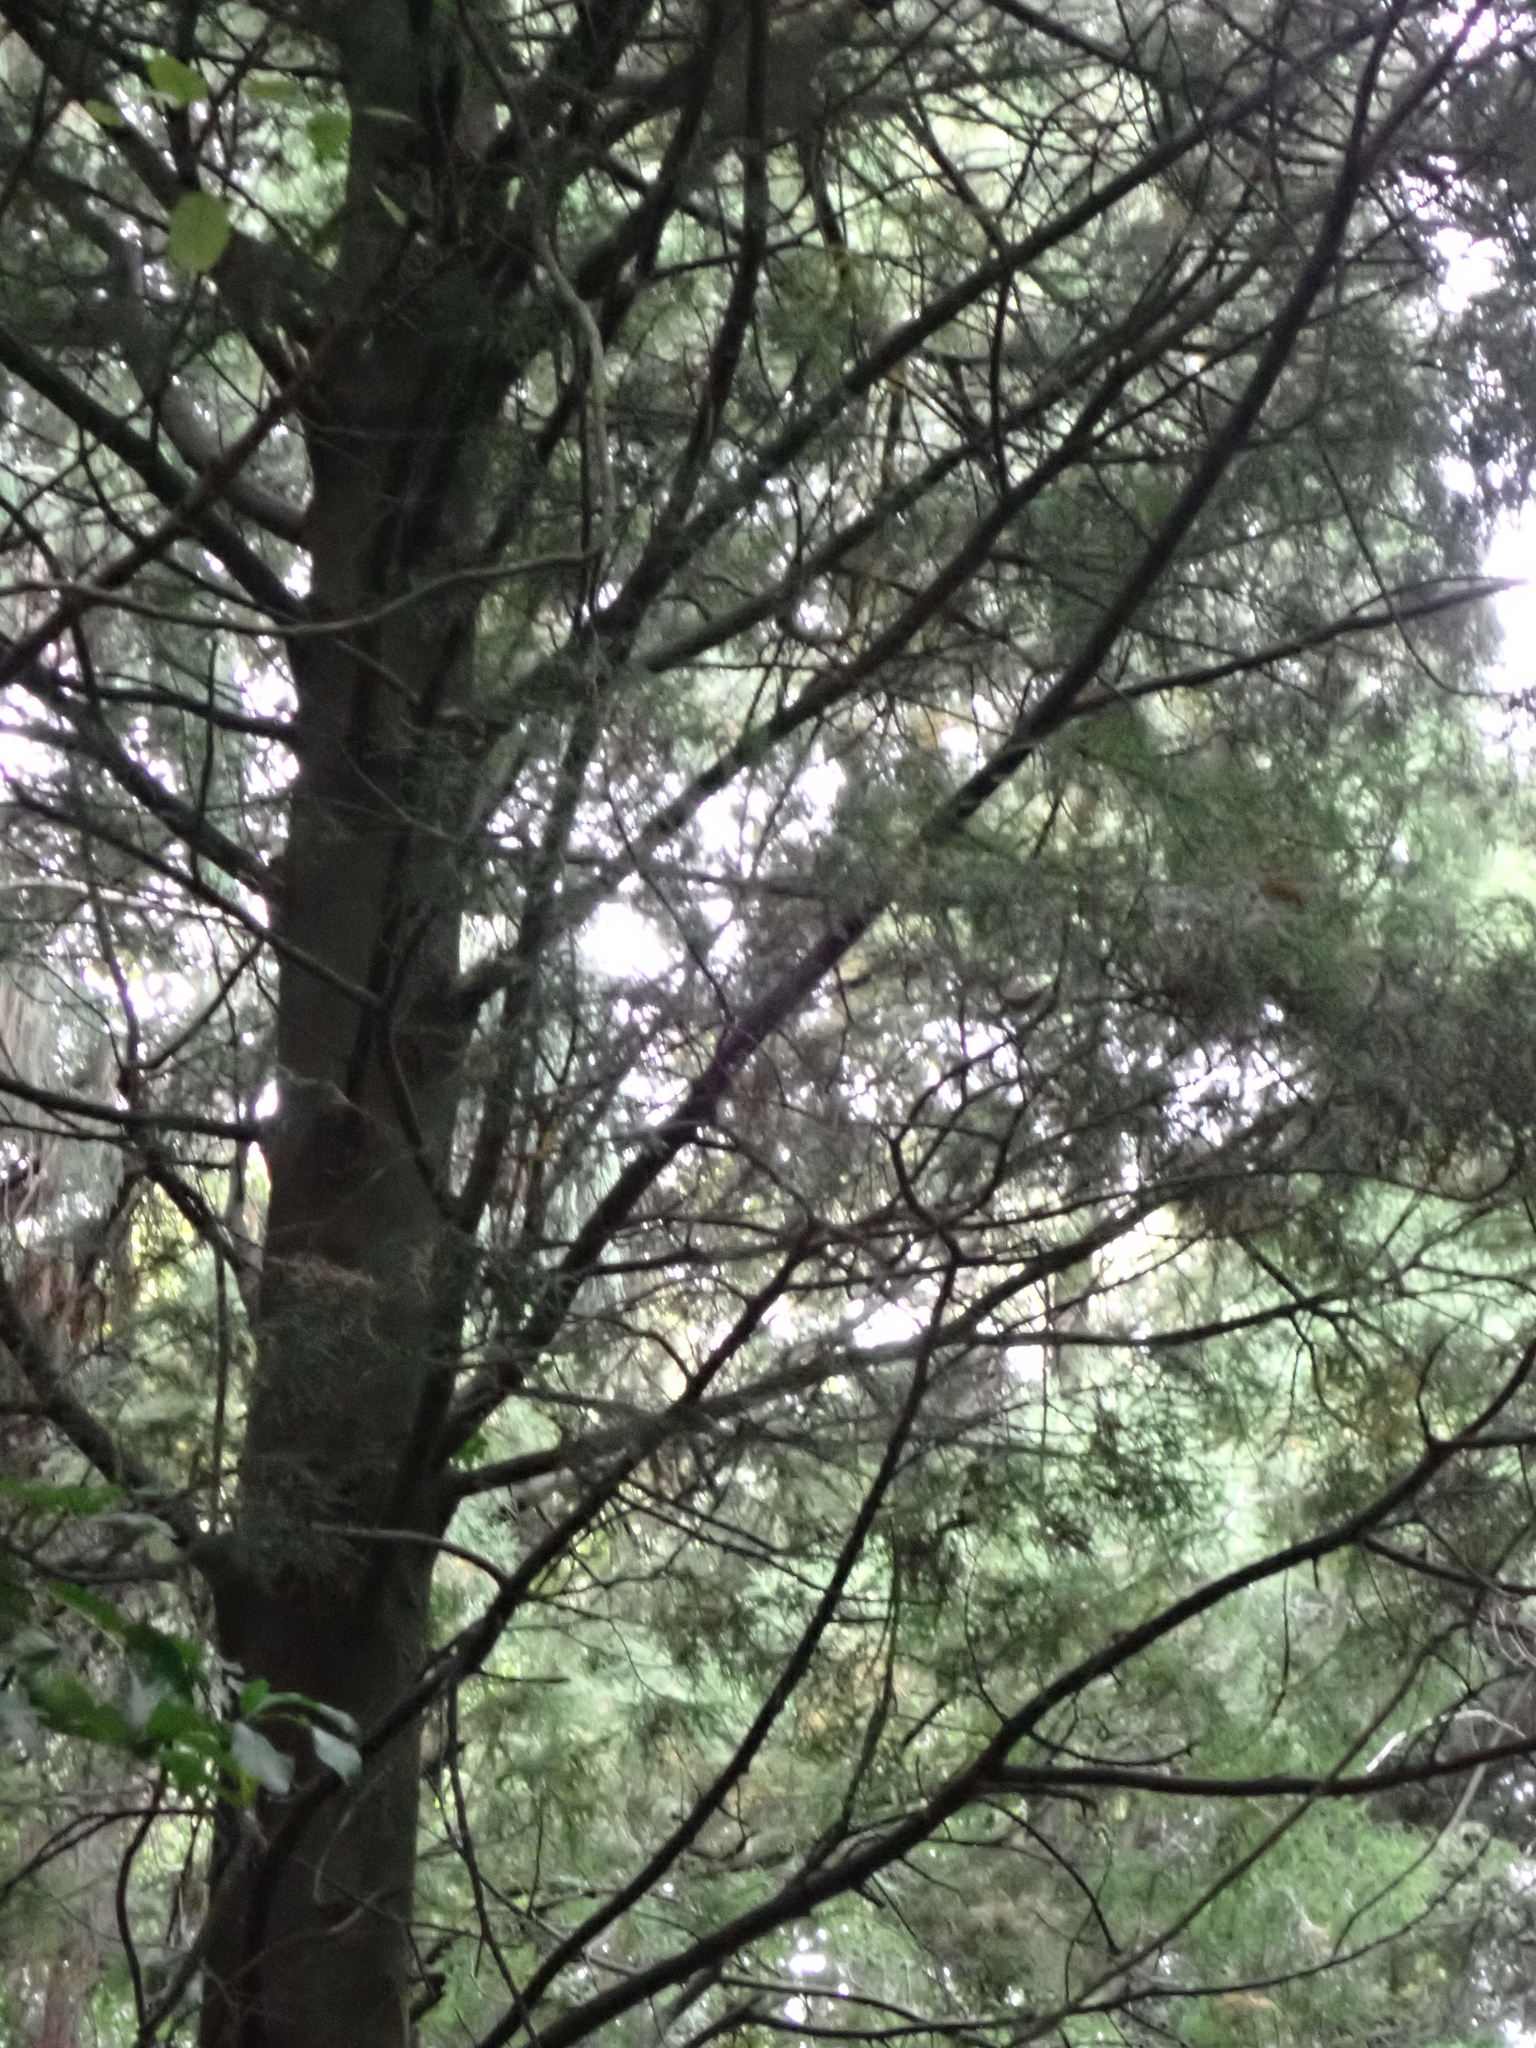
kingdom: Plantae
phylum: Tracheophyta
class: Pinopsida
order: Pinales
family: Podocarpaceae
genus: Dacrycarpus
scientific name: Dacrycarpus dacrydioides
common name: White pine
